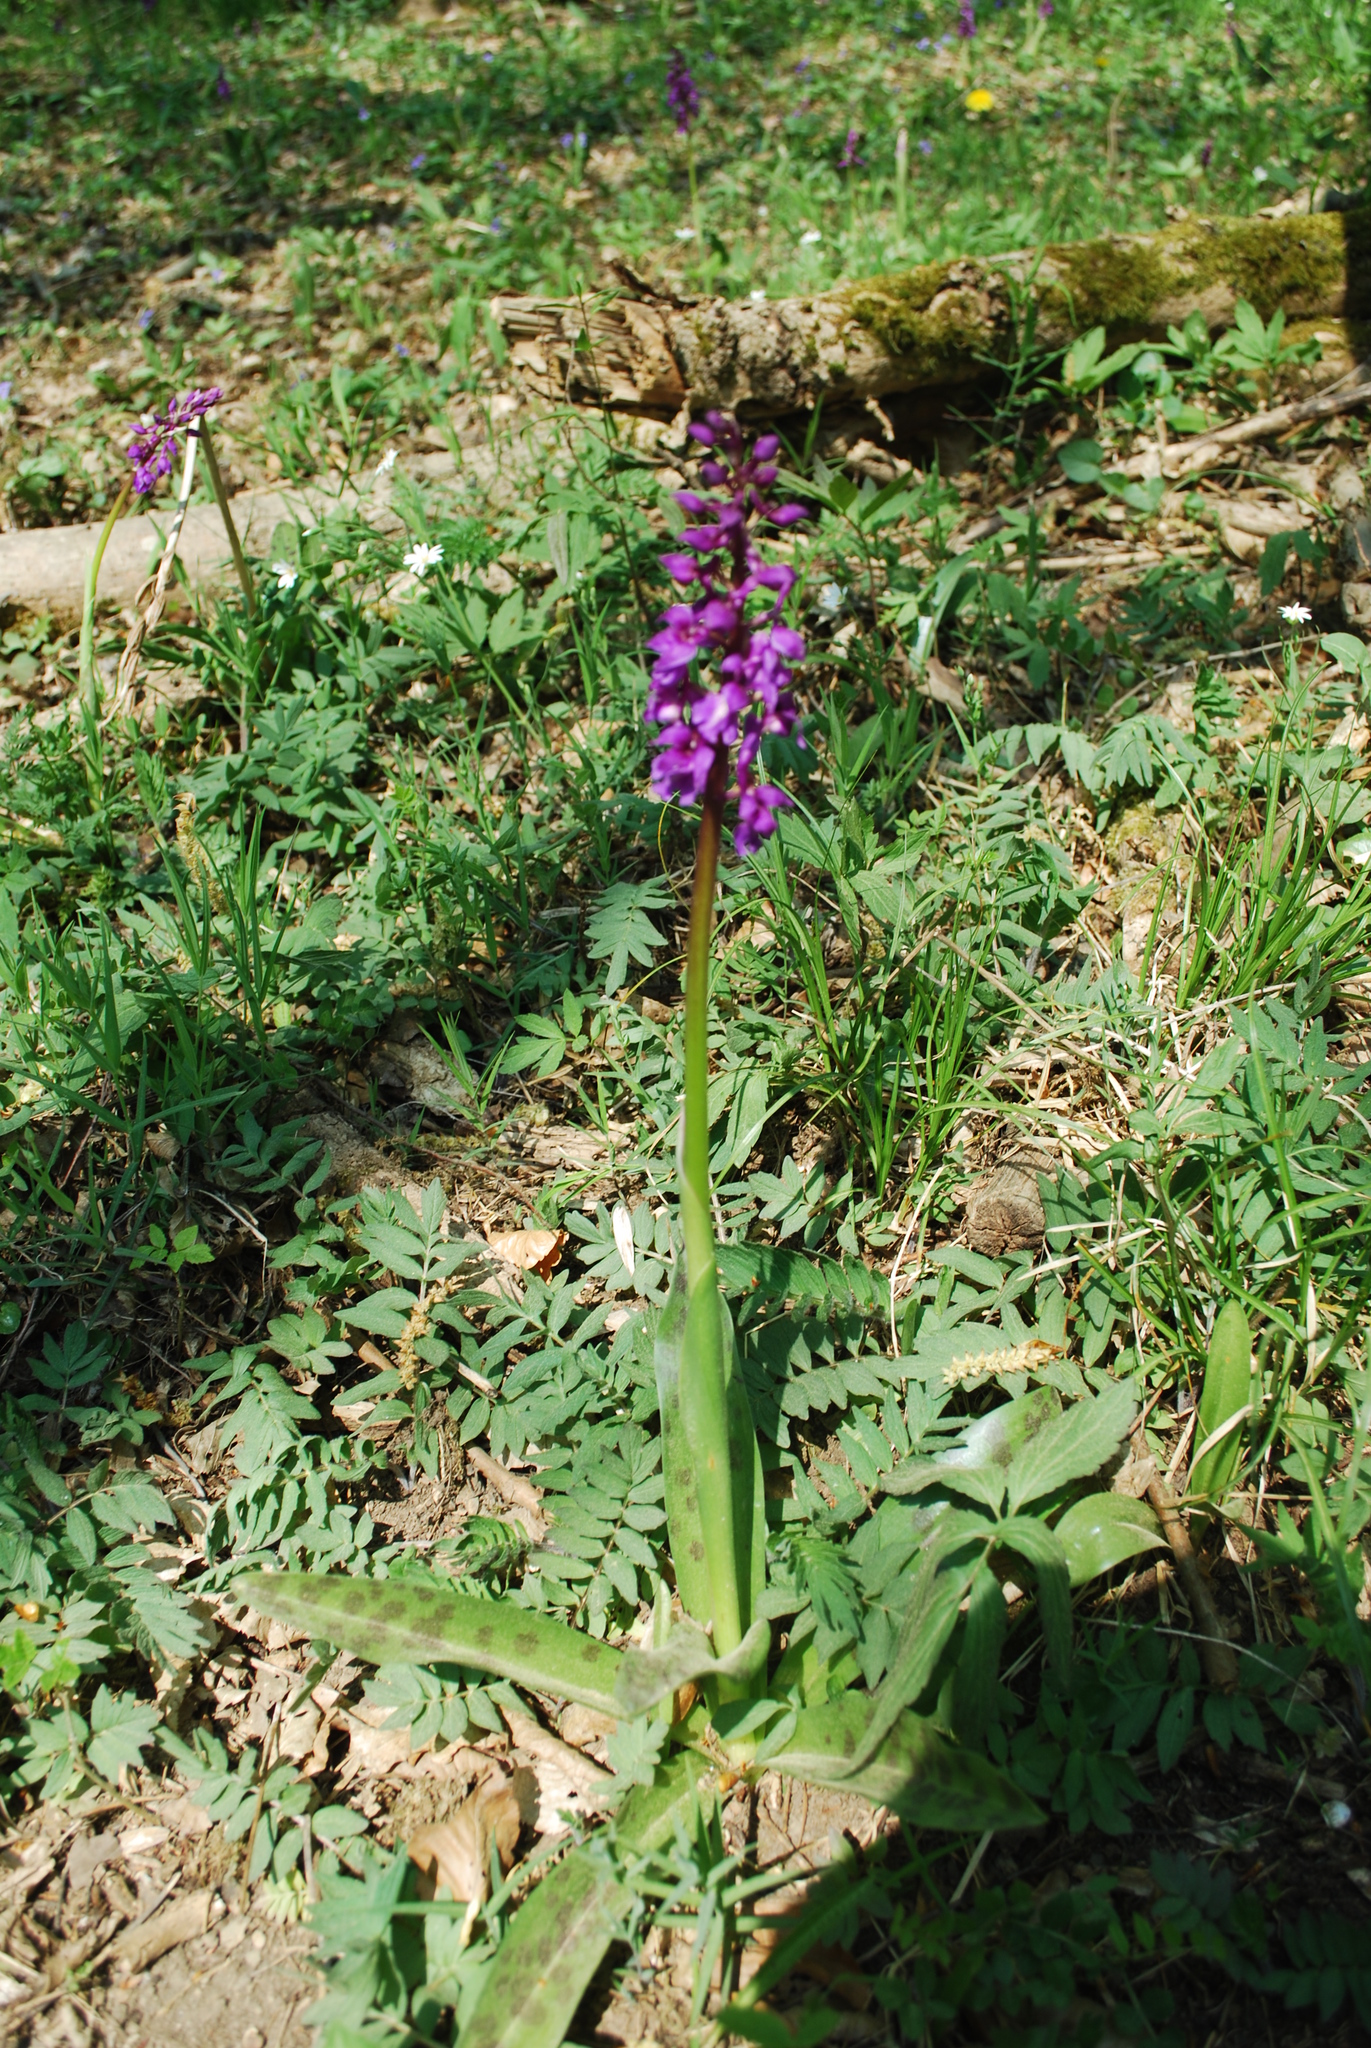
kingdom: Plantae
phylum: Tracheophyta
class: Liliopsida
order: Asparagales
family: Orchidaceae
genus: Orchis
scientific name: Orchis mascula
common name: Early-purple orchid
